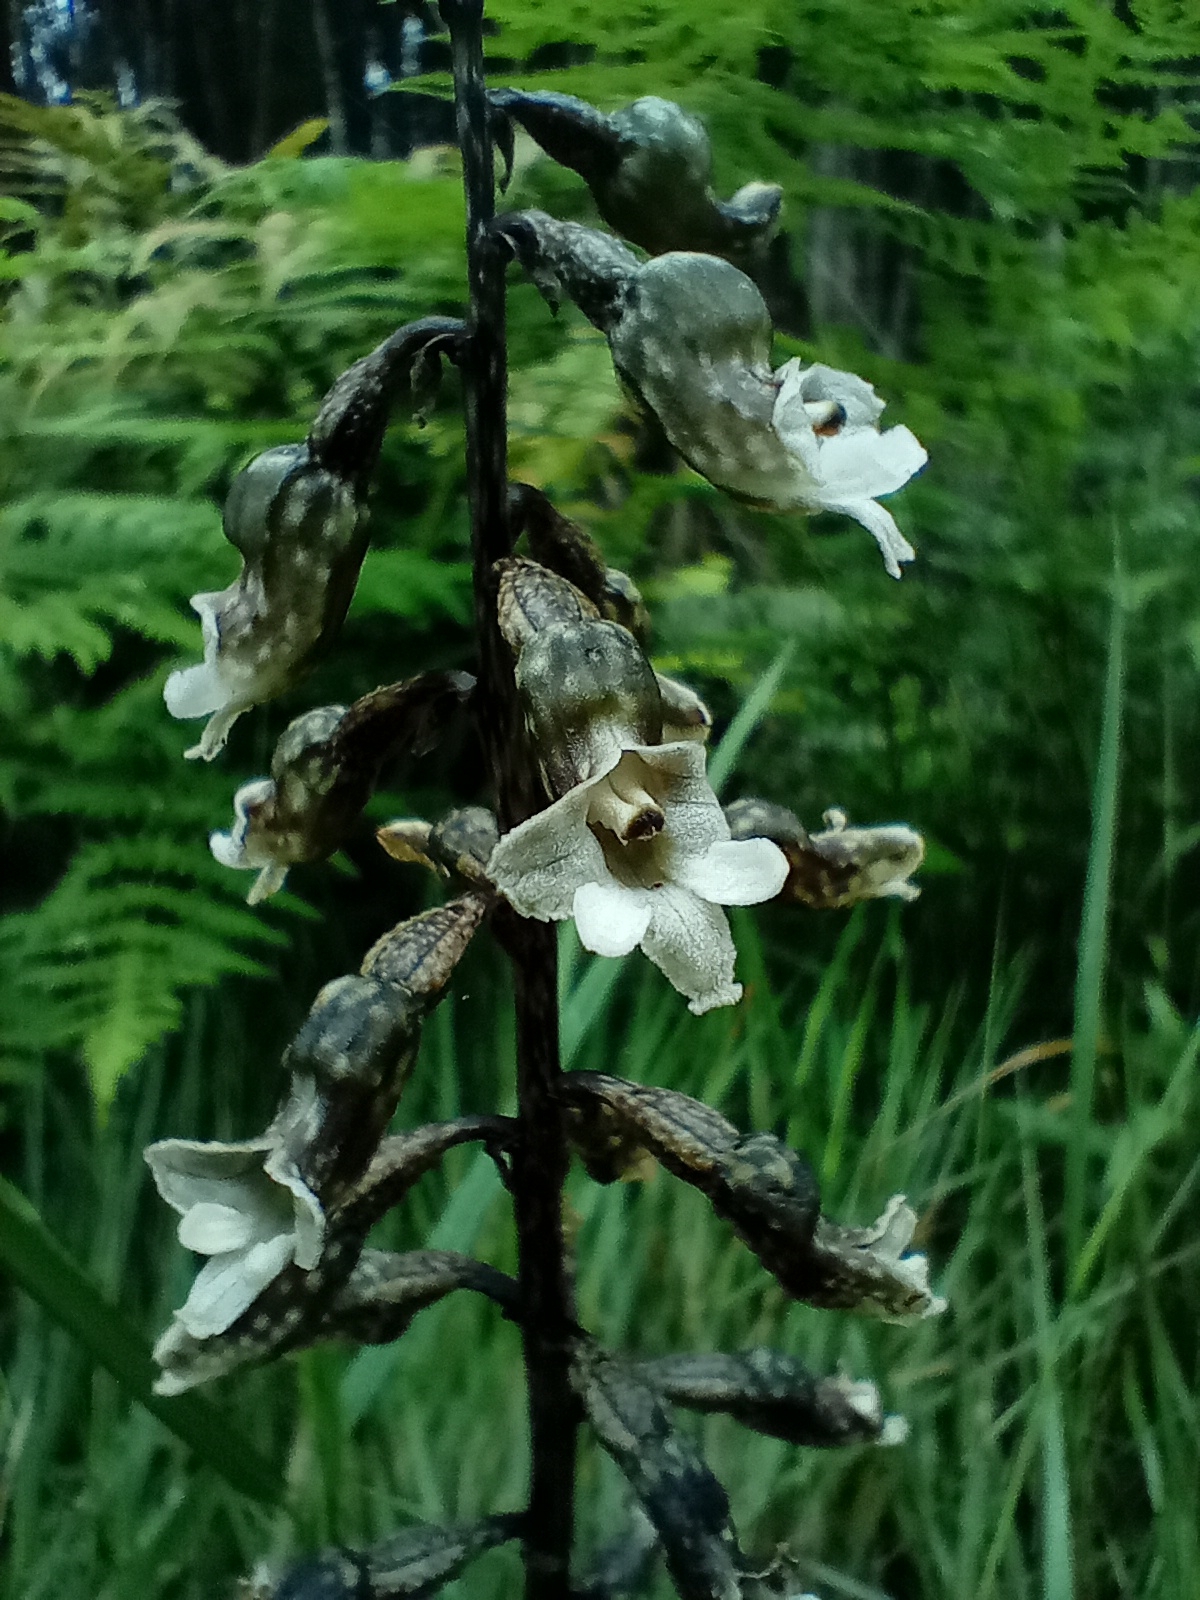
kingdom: Plantae
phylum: Tracheophyta
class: Liliopsida
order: Asparagales
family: Orchidaceae
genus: Gastrodia
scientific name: Gastrodia cunninghamii
